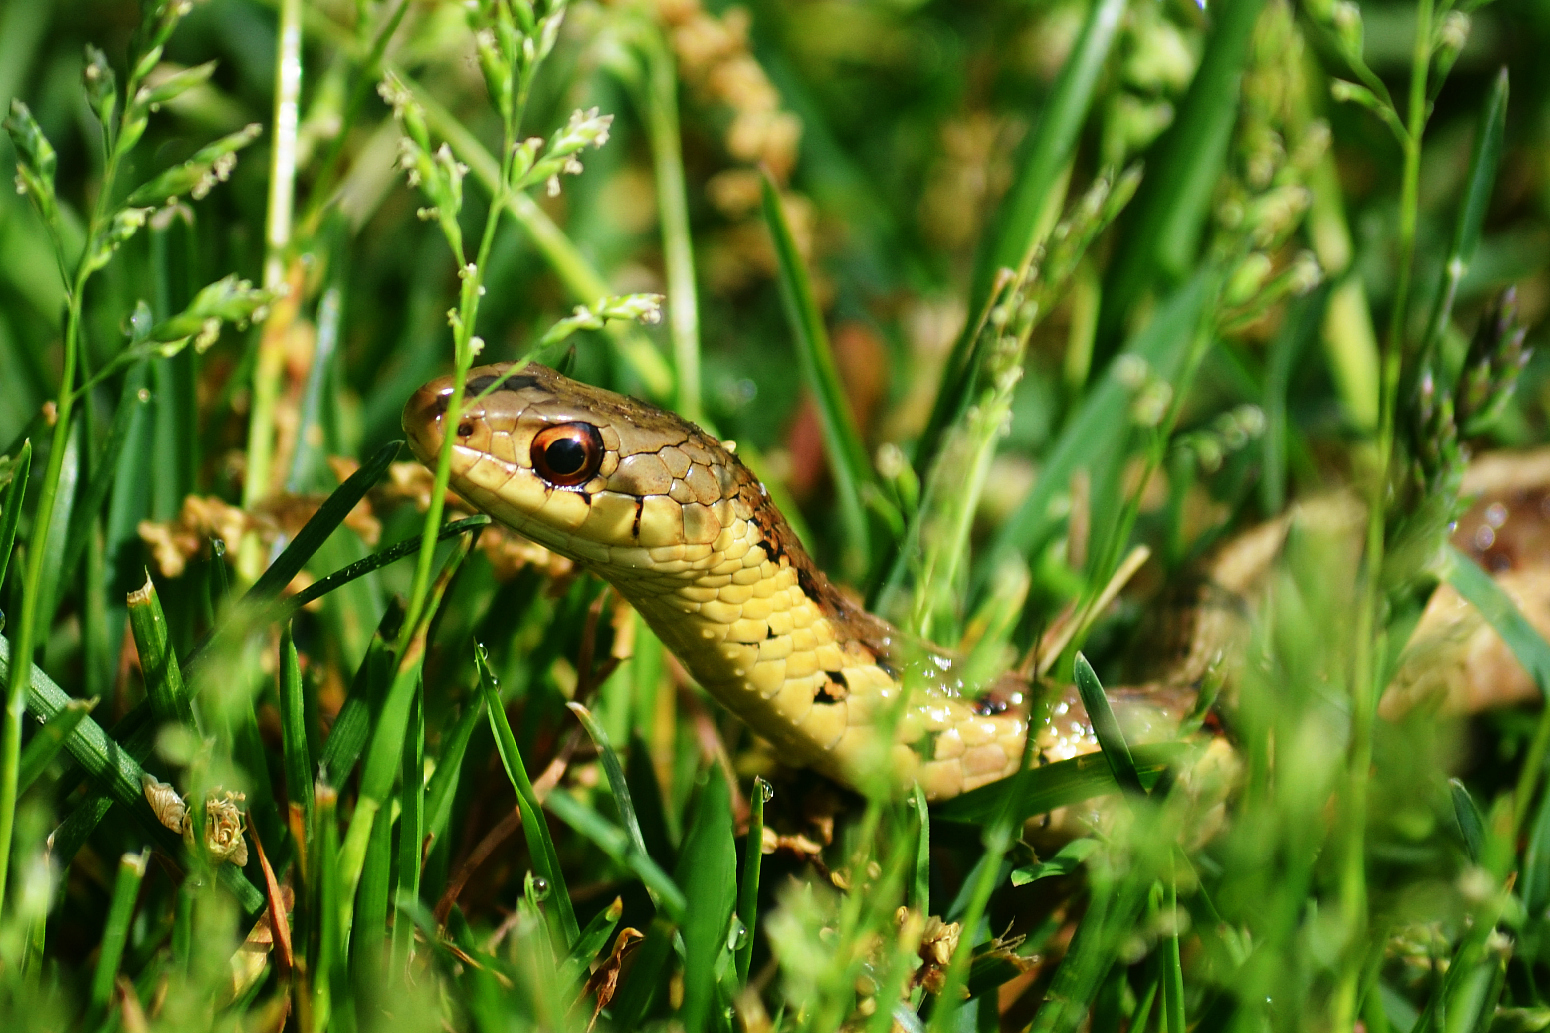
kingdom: Animalia
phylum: Chordata
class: Squamata
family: Colubridae
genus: Thamnophis
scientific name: Thamnophis sirtalis
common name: Common garter snake
